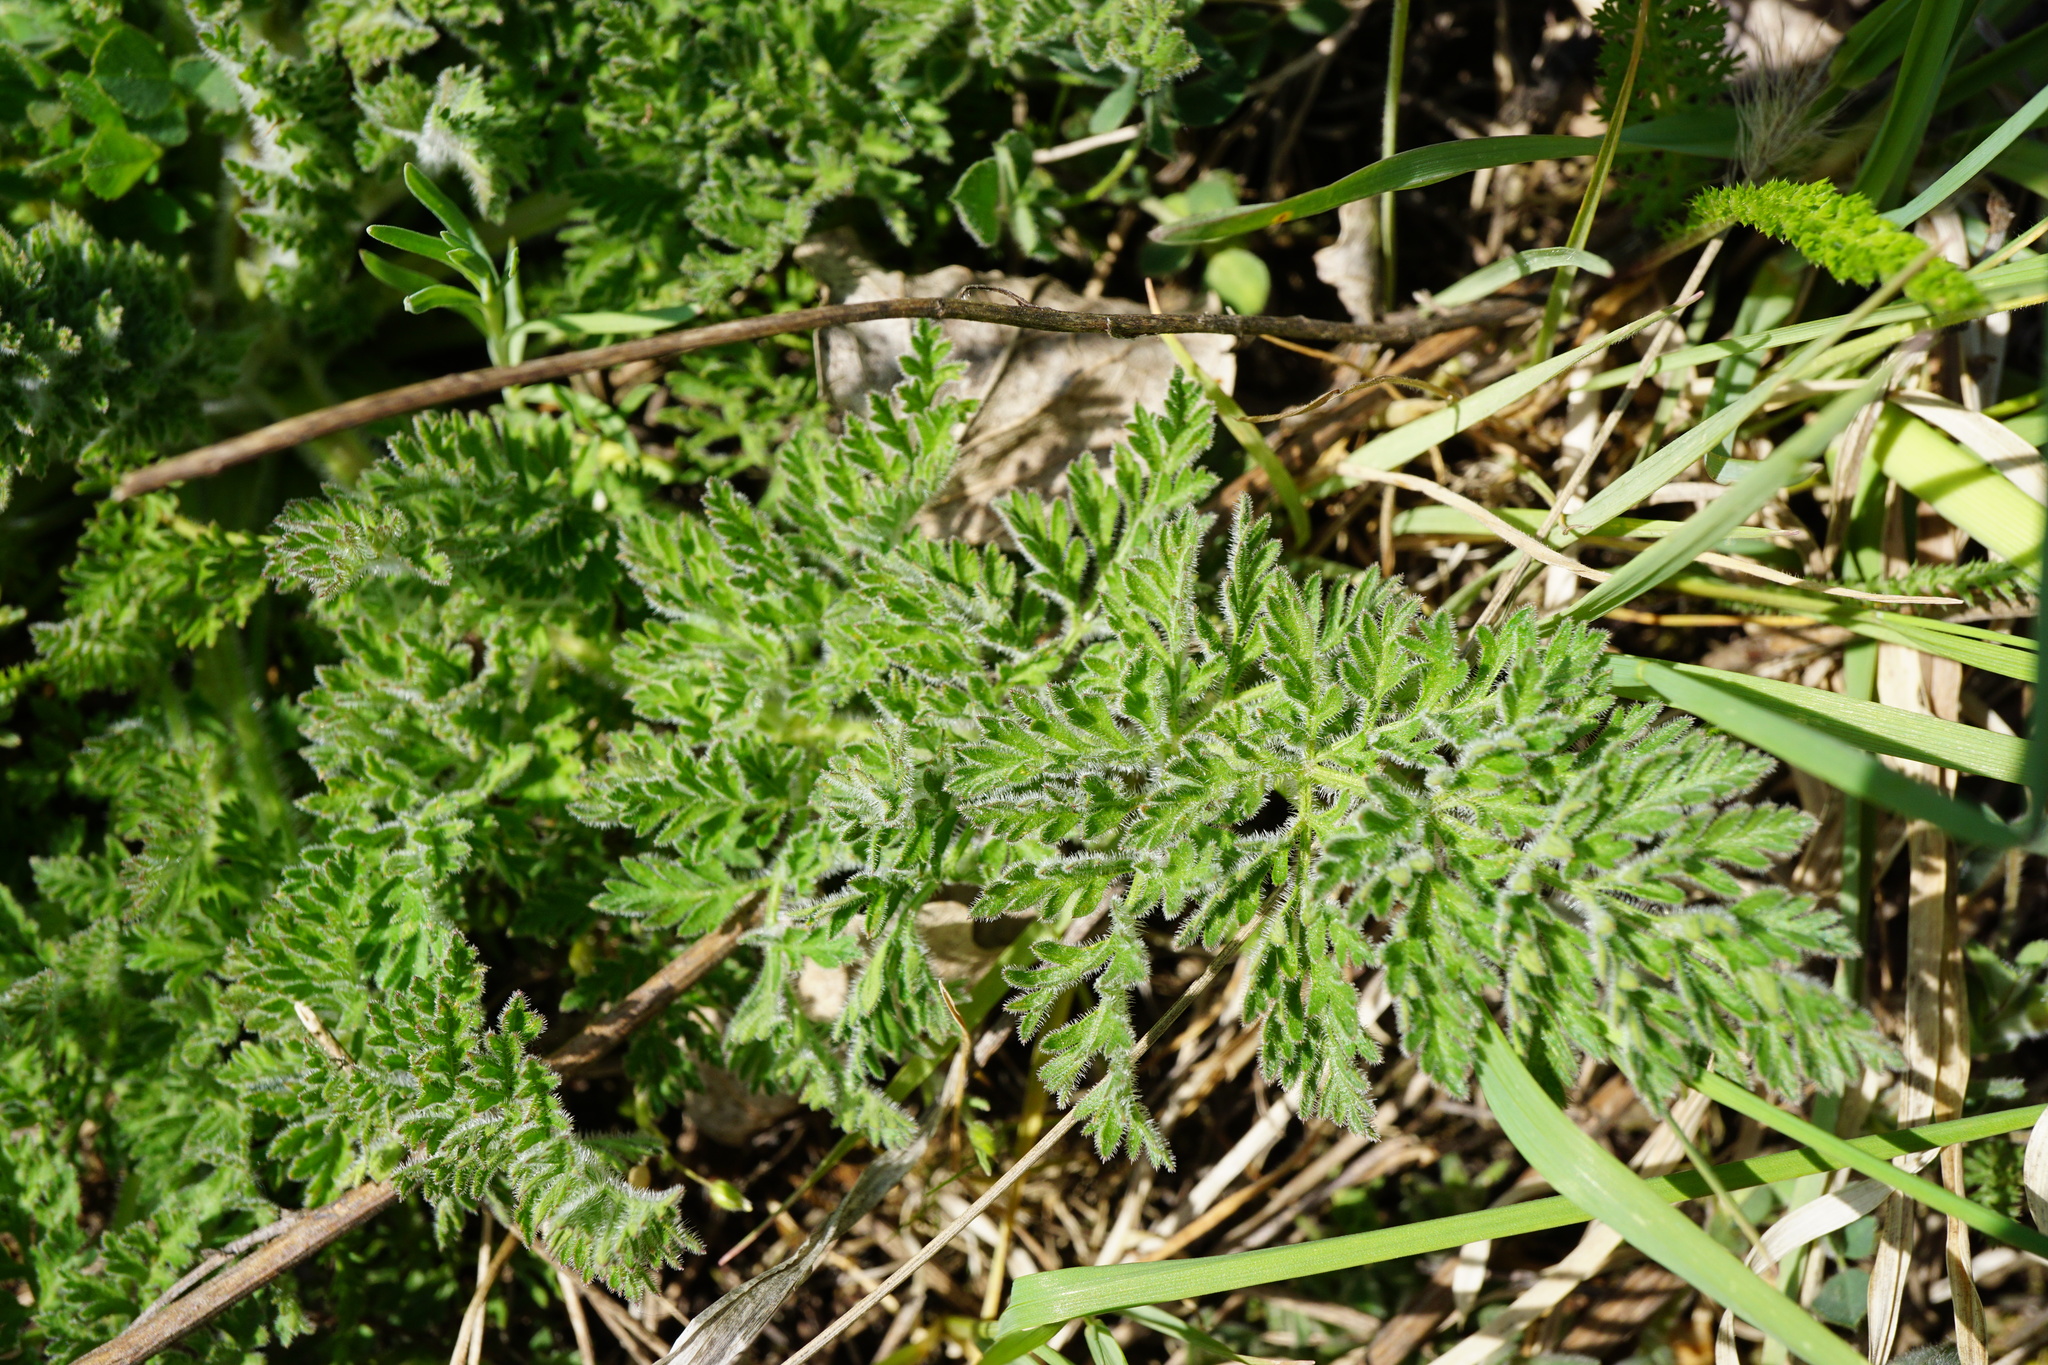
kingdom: Plantae
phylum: Tracheophyta
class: Magnoliopsida
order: Apiales
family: Apiaceae
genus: Daucus
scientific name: Daucus carota
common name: Wild carrot
